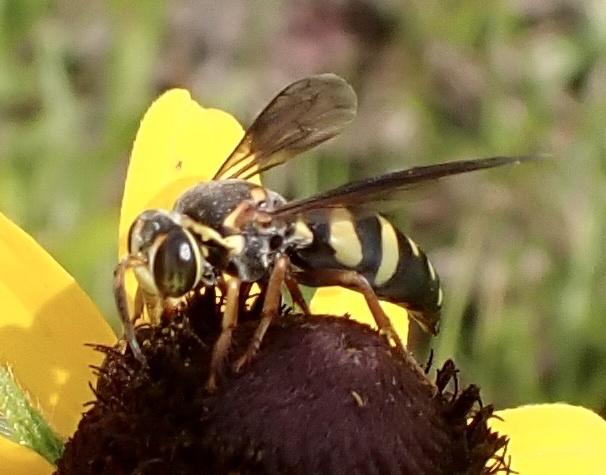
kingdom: Animalia
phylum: Arthropoda
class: Insecta
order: Hymenoptera
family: Crabronidae
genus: Bicyrtes
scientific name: Bicyrtes insidiatrix
